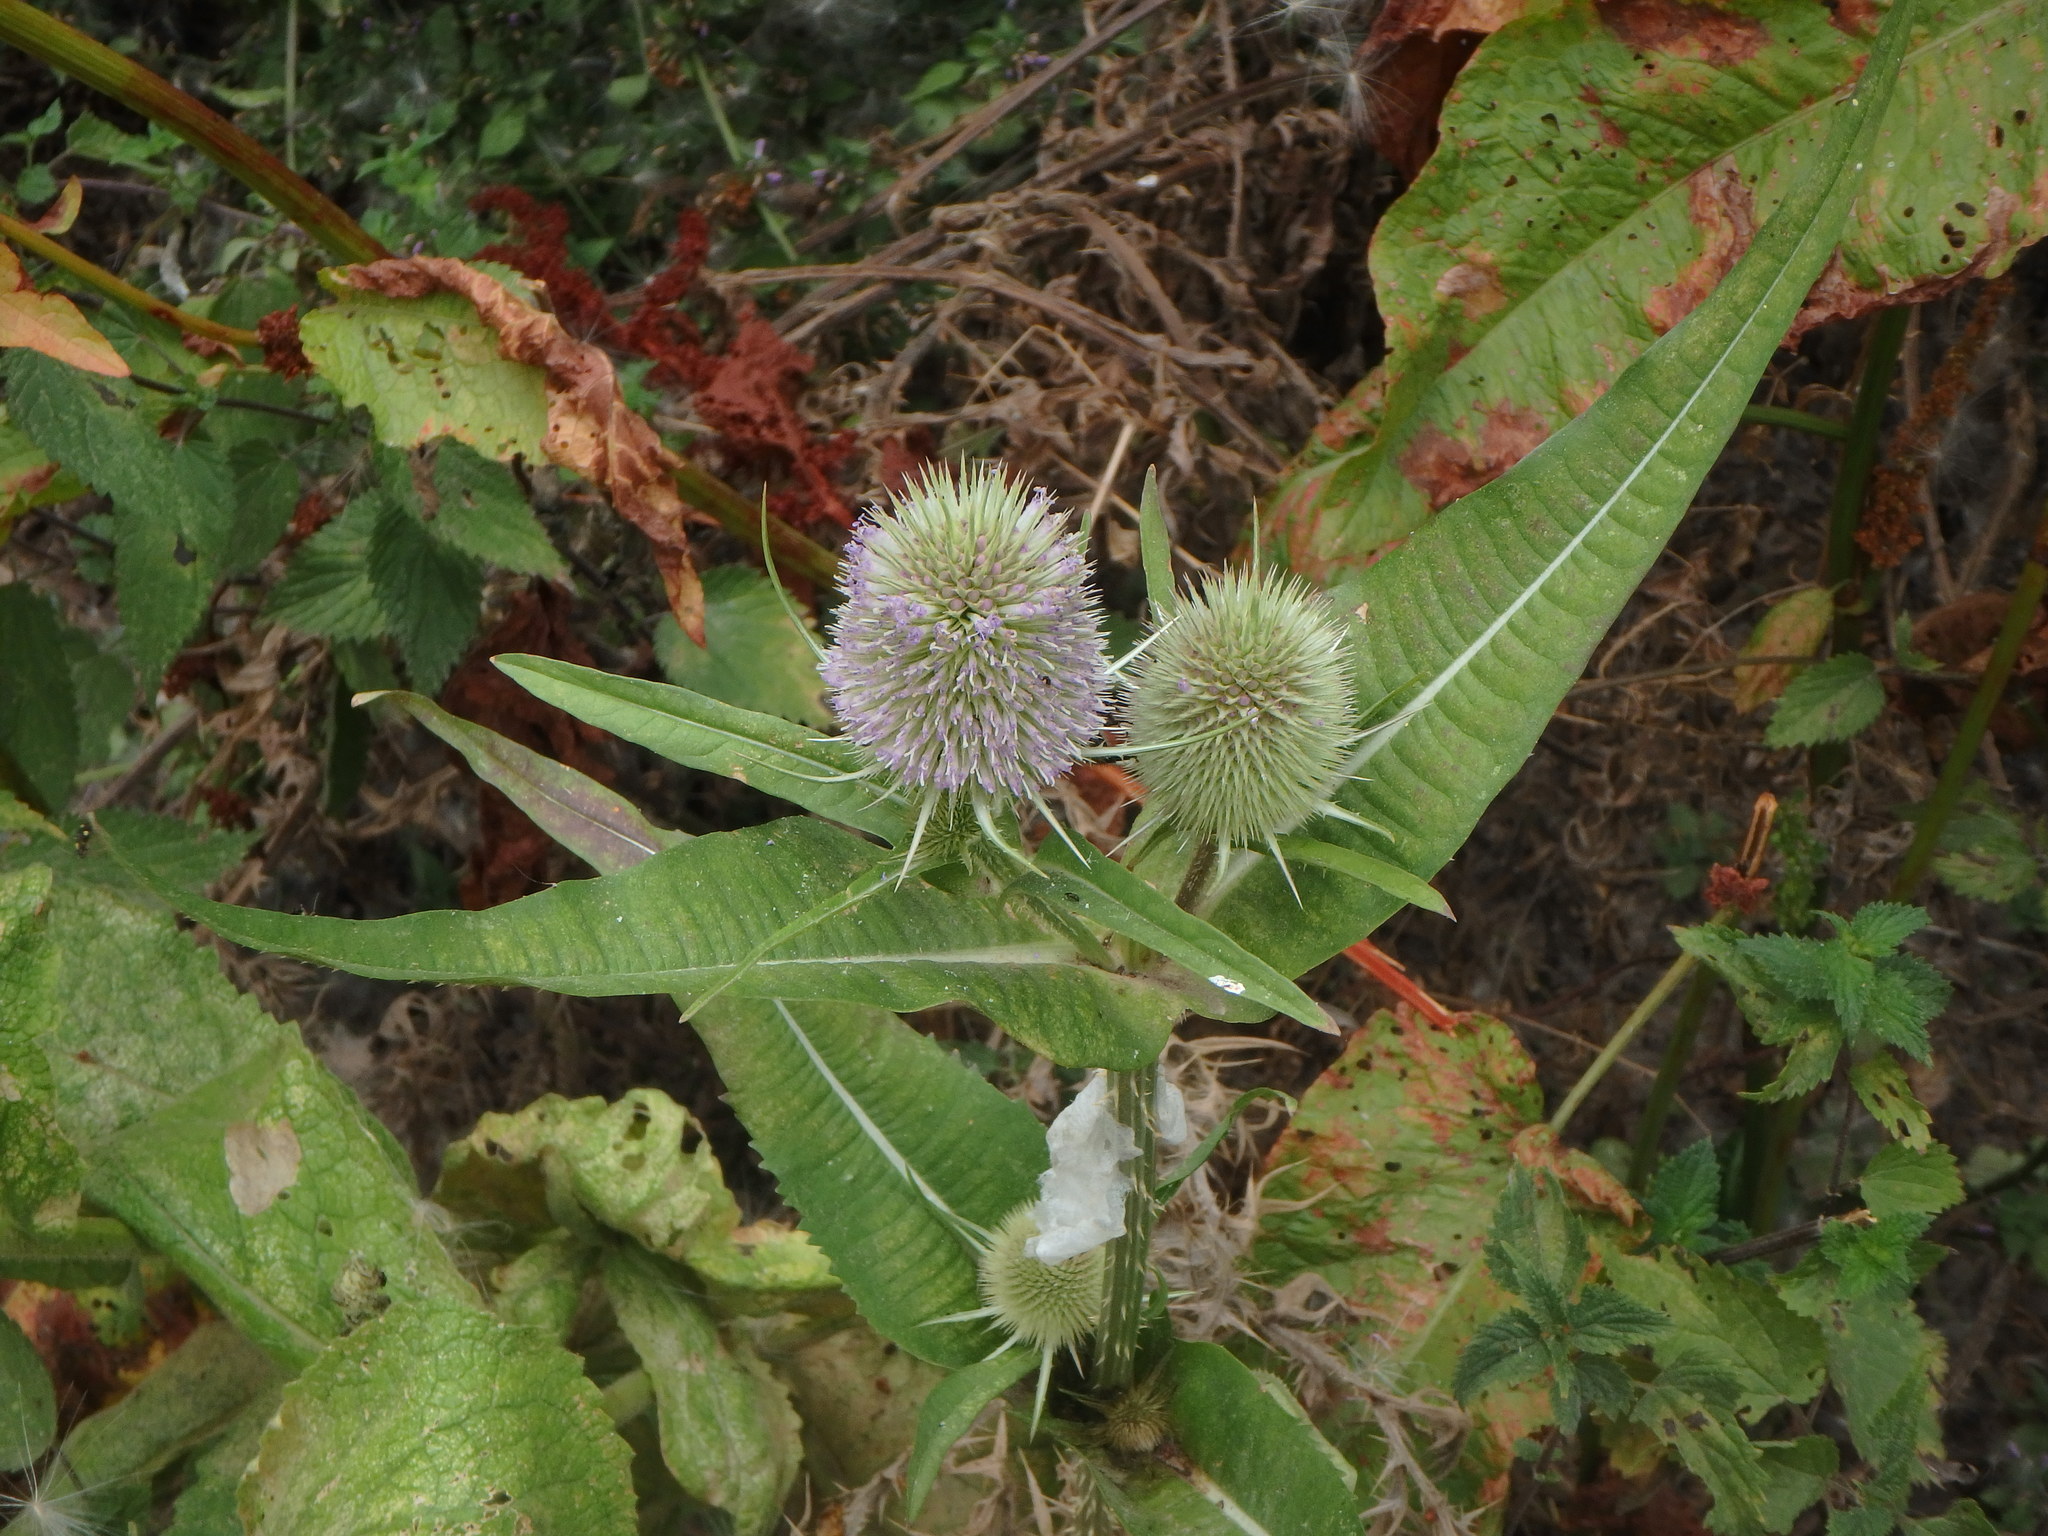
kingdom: Plantae
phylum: Tracheophyta
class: Magnoliopsida
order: Dipsacales
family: Caprifoliaceae
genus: Dipsacus
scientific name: Dipsacus fullonum
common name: Teasel
